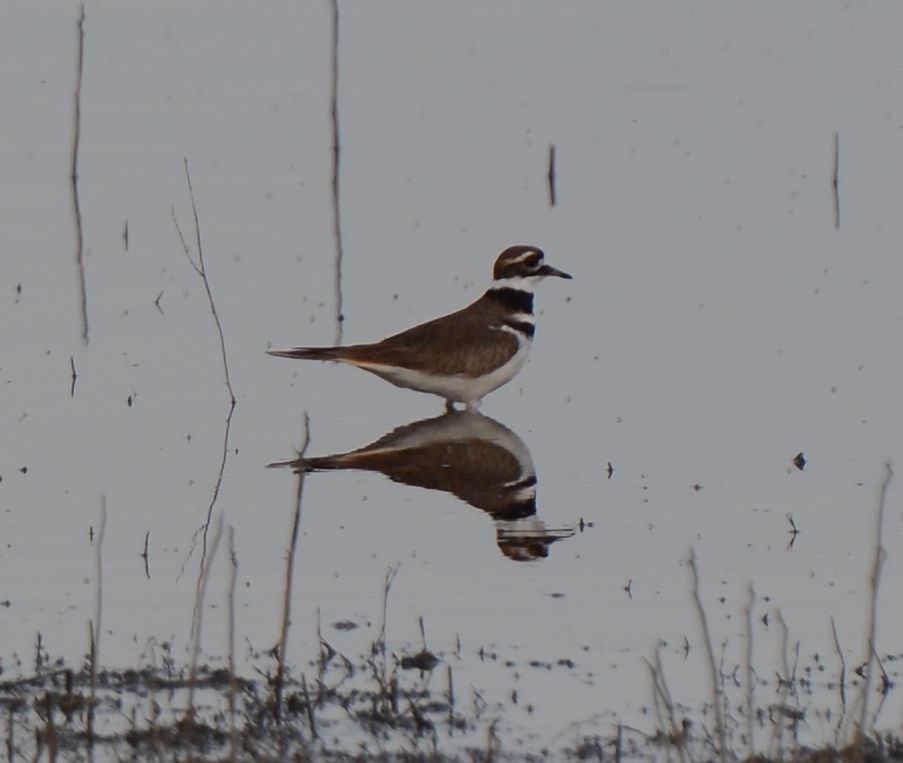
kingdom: Animalia
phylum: Chordata
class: Aves
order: Charadriiformes
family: Charadriidae
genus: Charadrius
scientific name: Charadrius vociferus
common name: Killdeer
